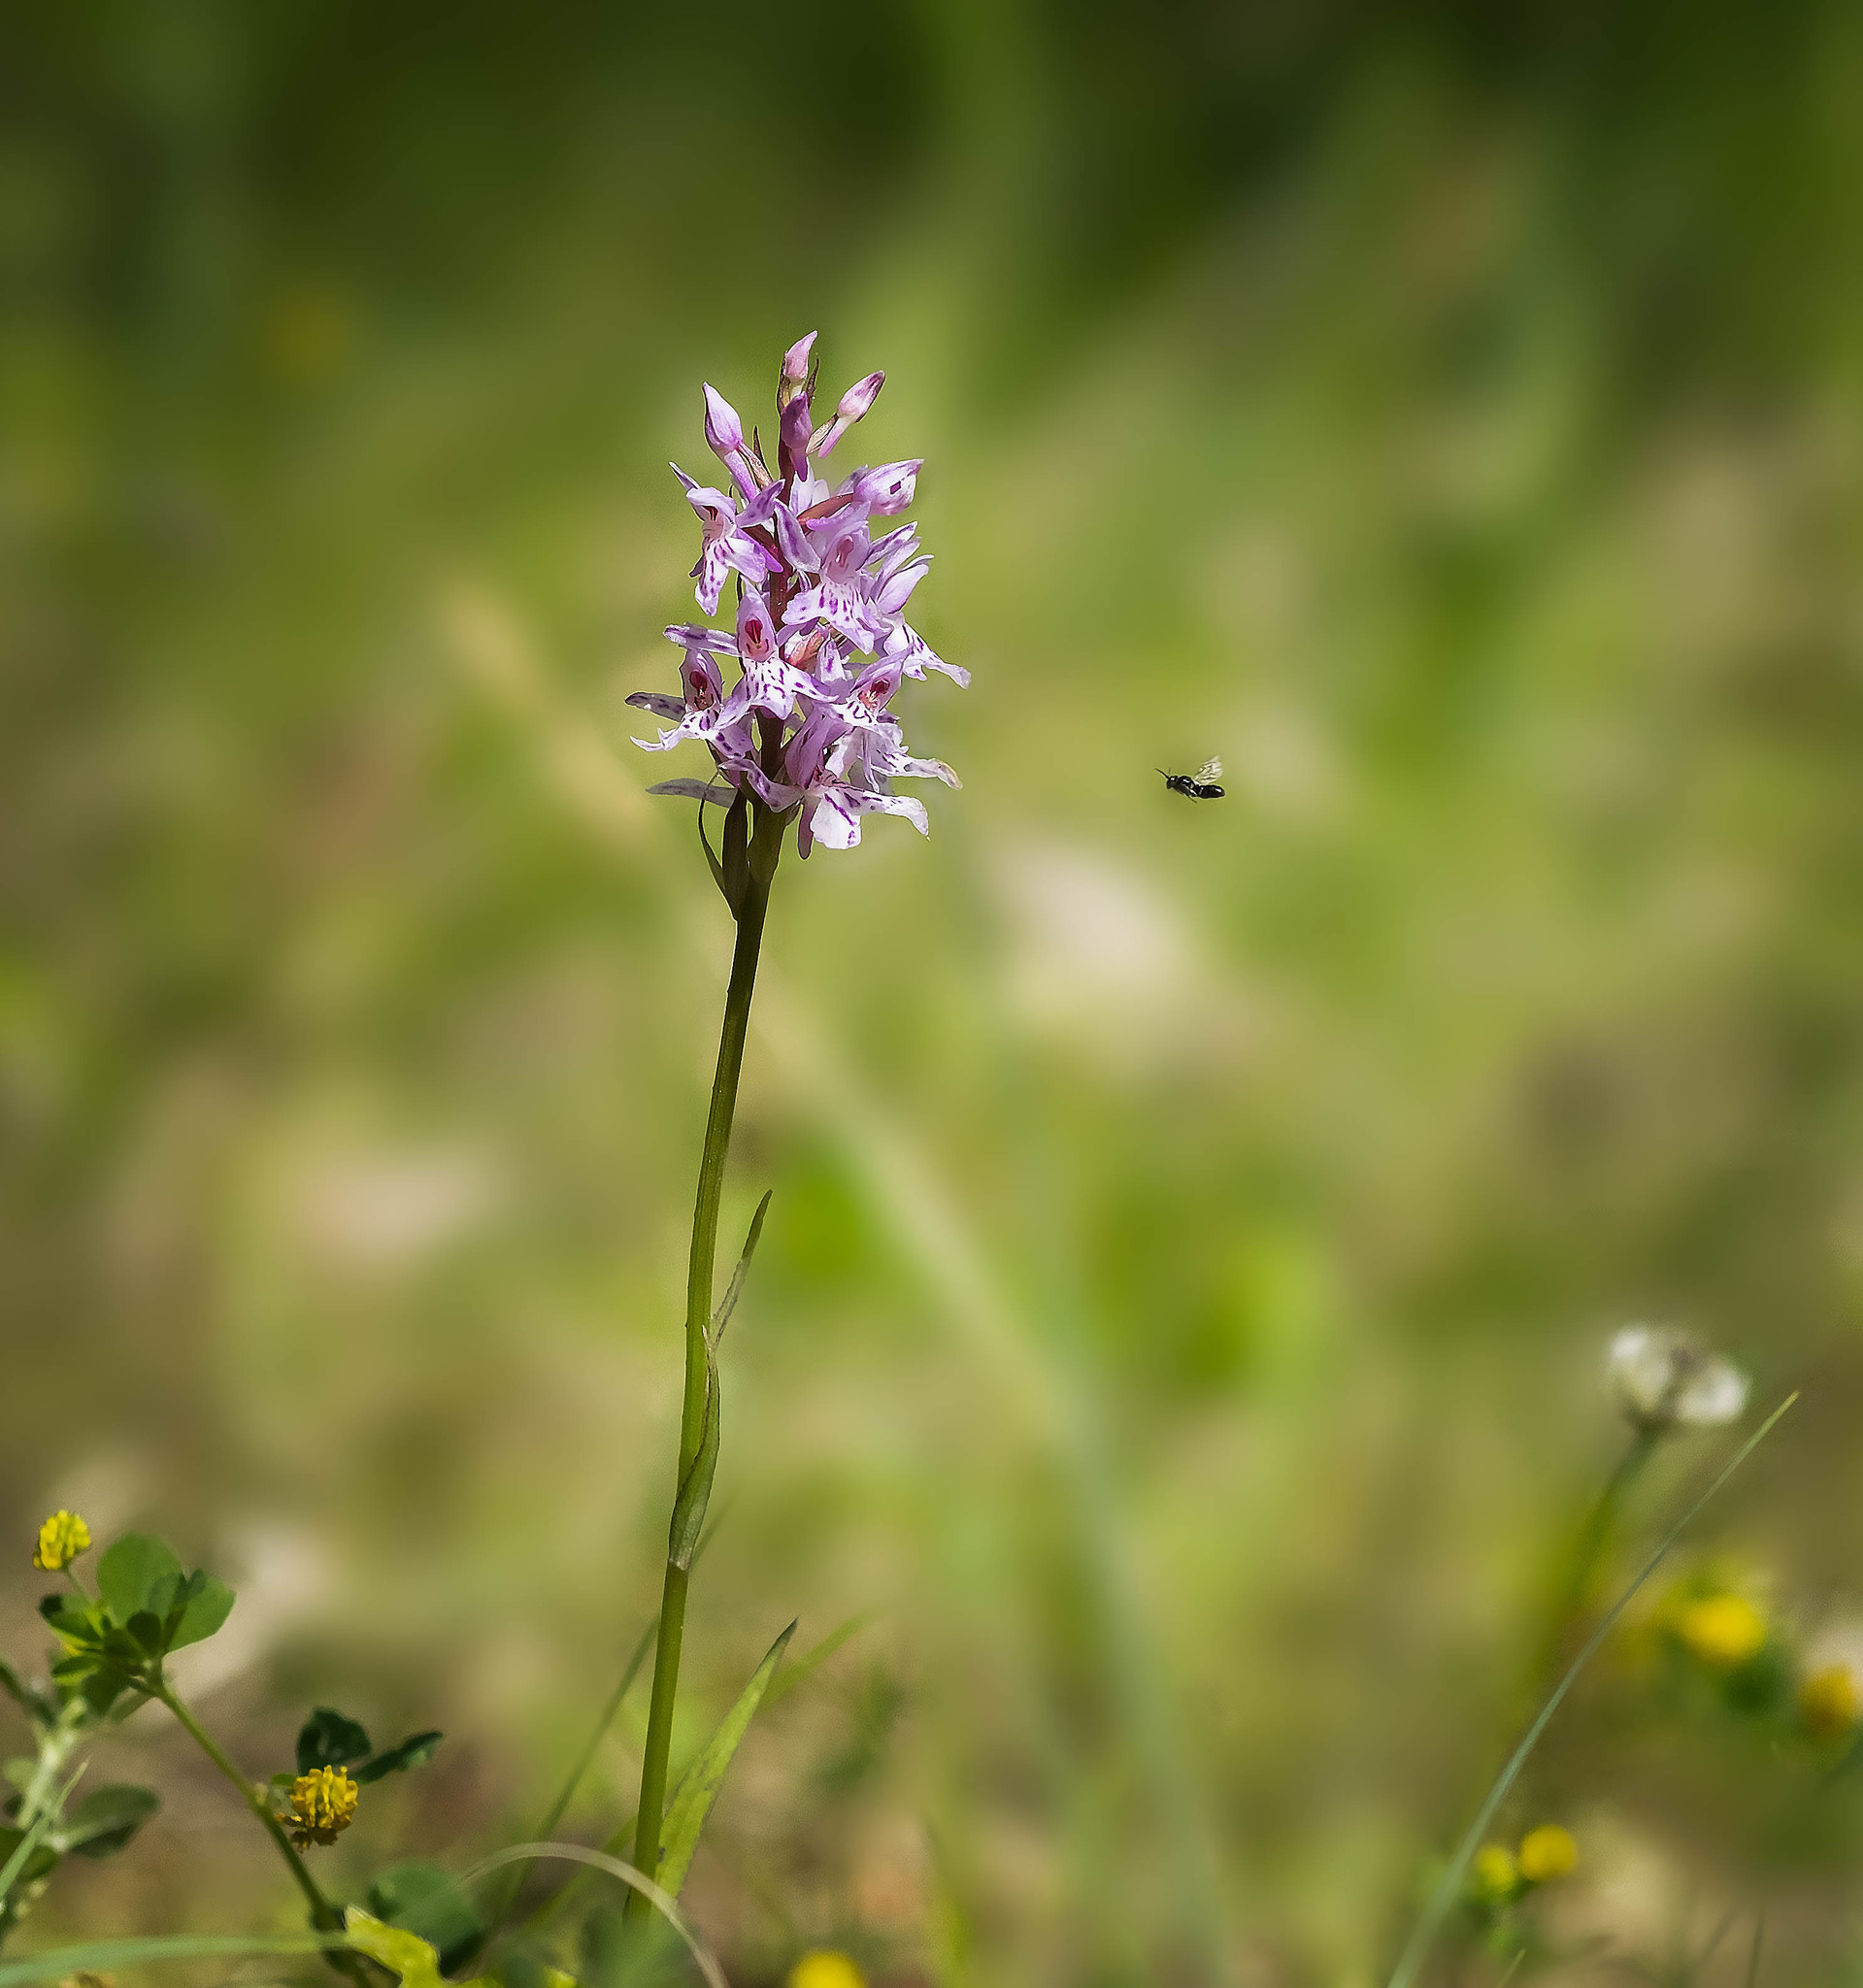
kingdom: Plantae
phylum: Tracheophyta
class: Liliopsida
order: Asparagales
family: Orchidaceae
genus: Dactylorhiza
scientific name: Dactylorhiza maculata
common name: Heath spotted-orchid
